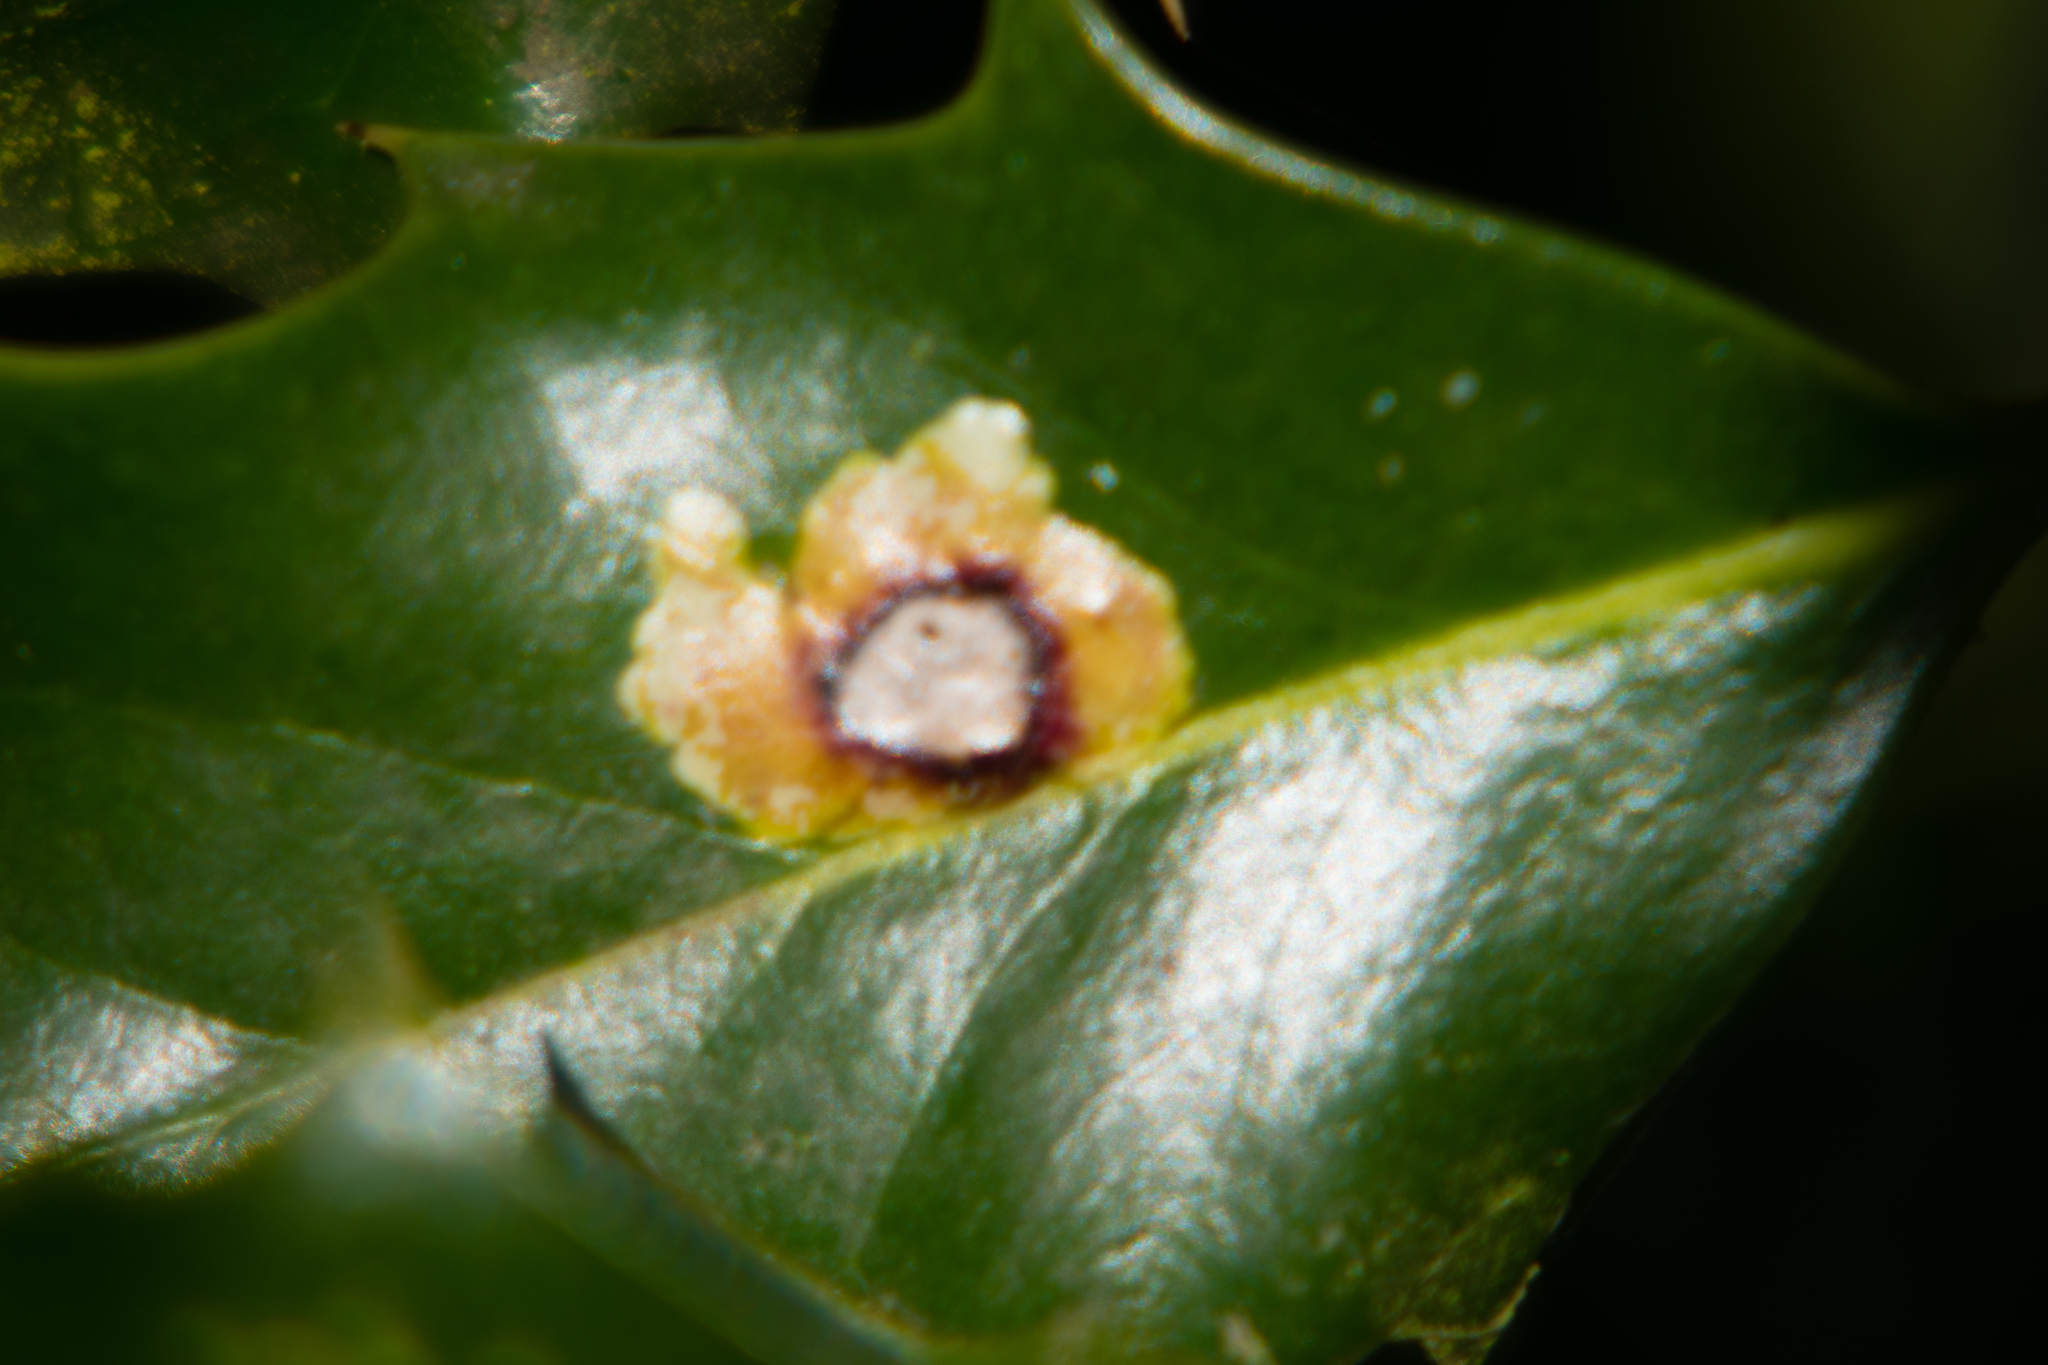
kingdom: Animalia
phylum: Arthropoda
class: Insecta
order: Diptera
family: Agromyzidae
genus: Phytomyza
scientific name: Phytomyza ilicis
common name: Holly leafminer
